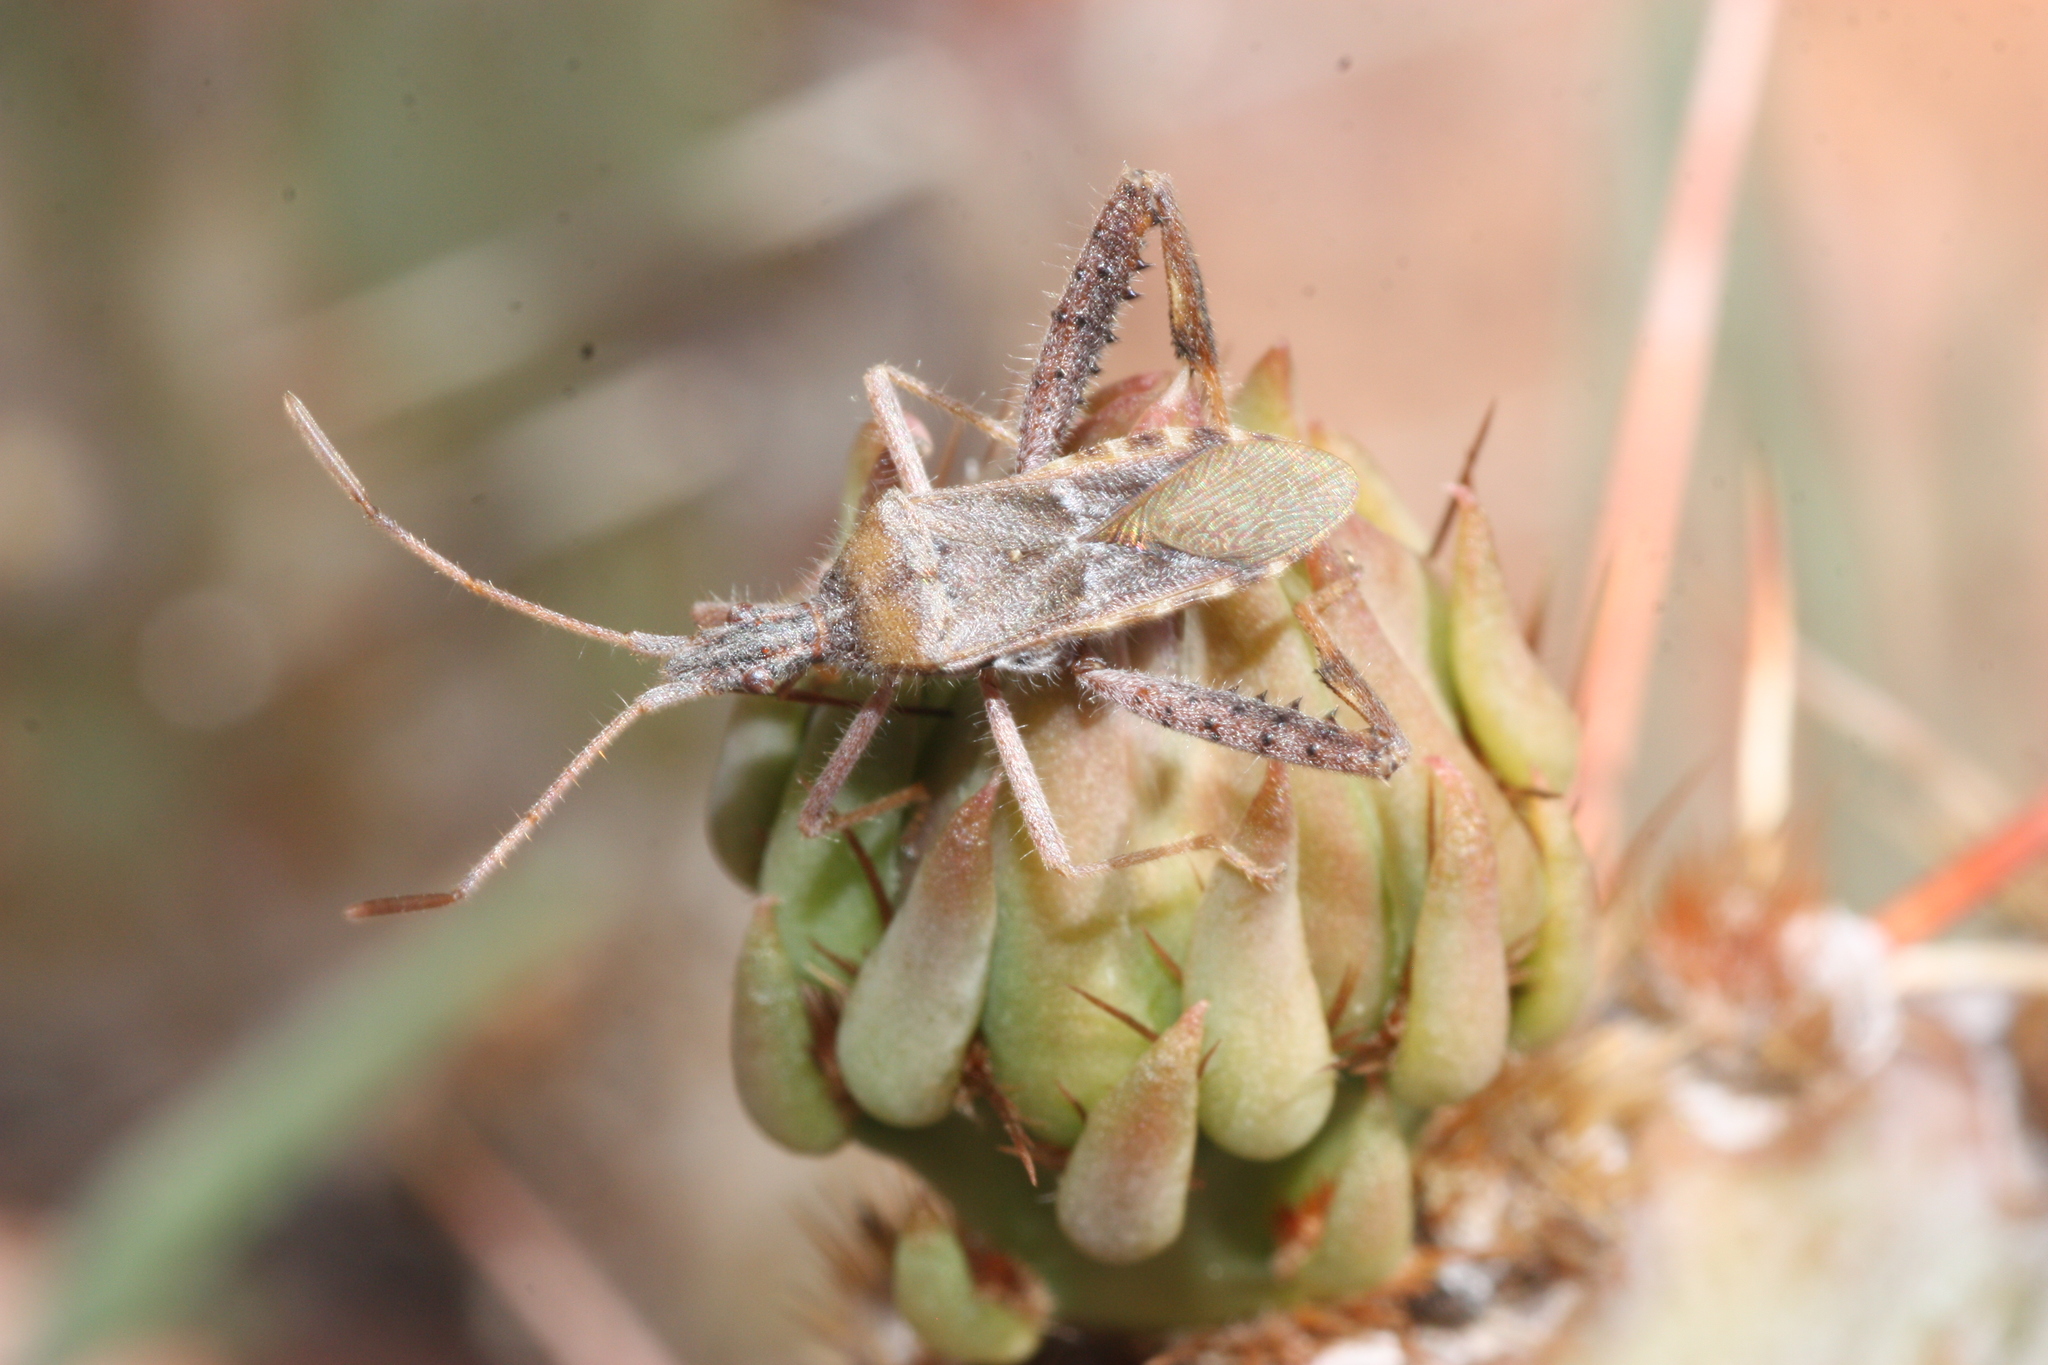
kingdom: Animalia
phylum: Arthropoda
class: Insecta
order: Hemiptera
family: Coreidae
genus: Narnia
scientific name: Narnia femorata
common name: Leaf-footed cactus bug
